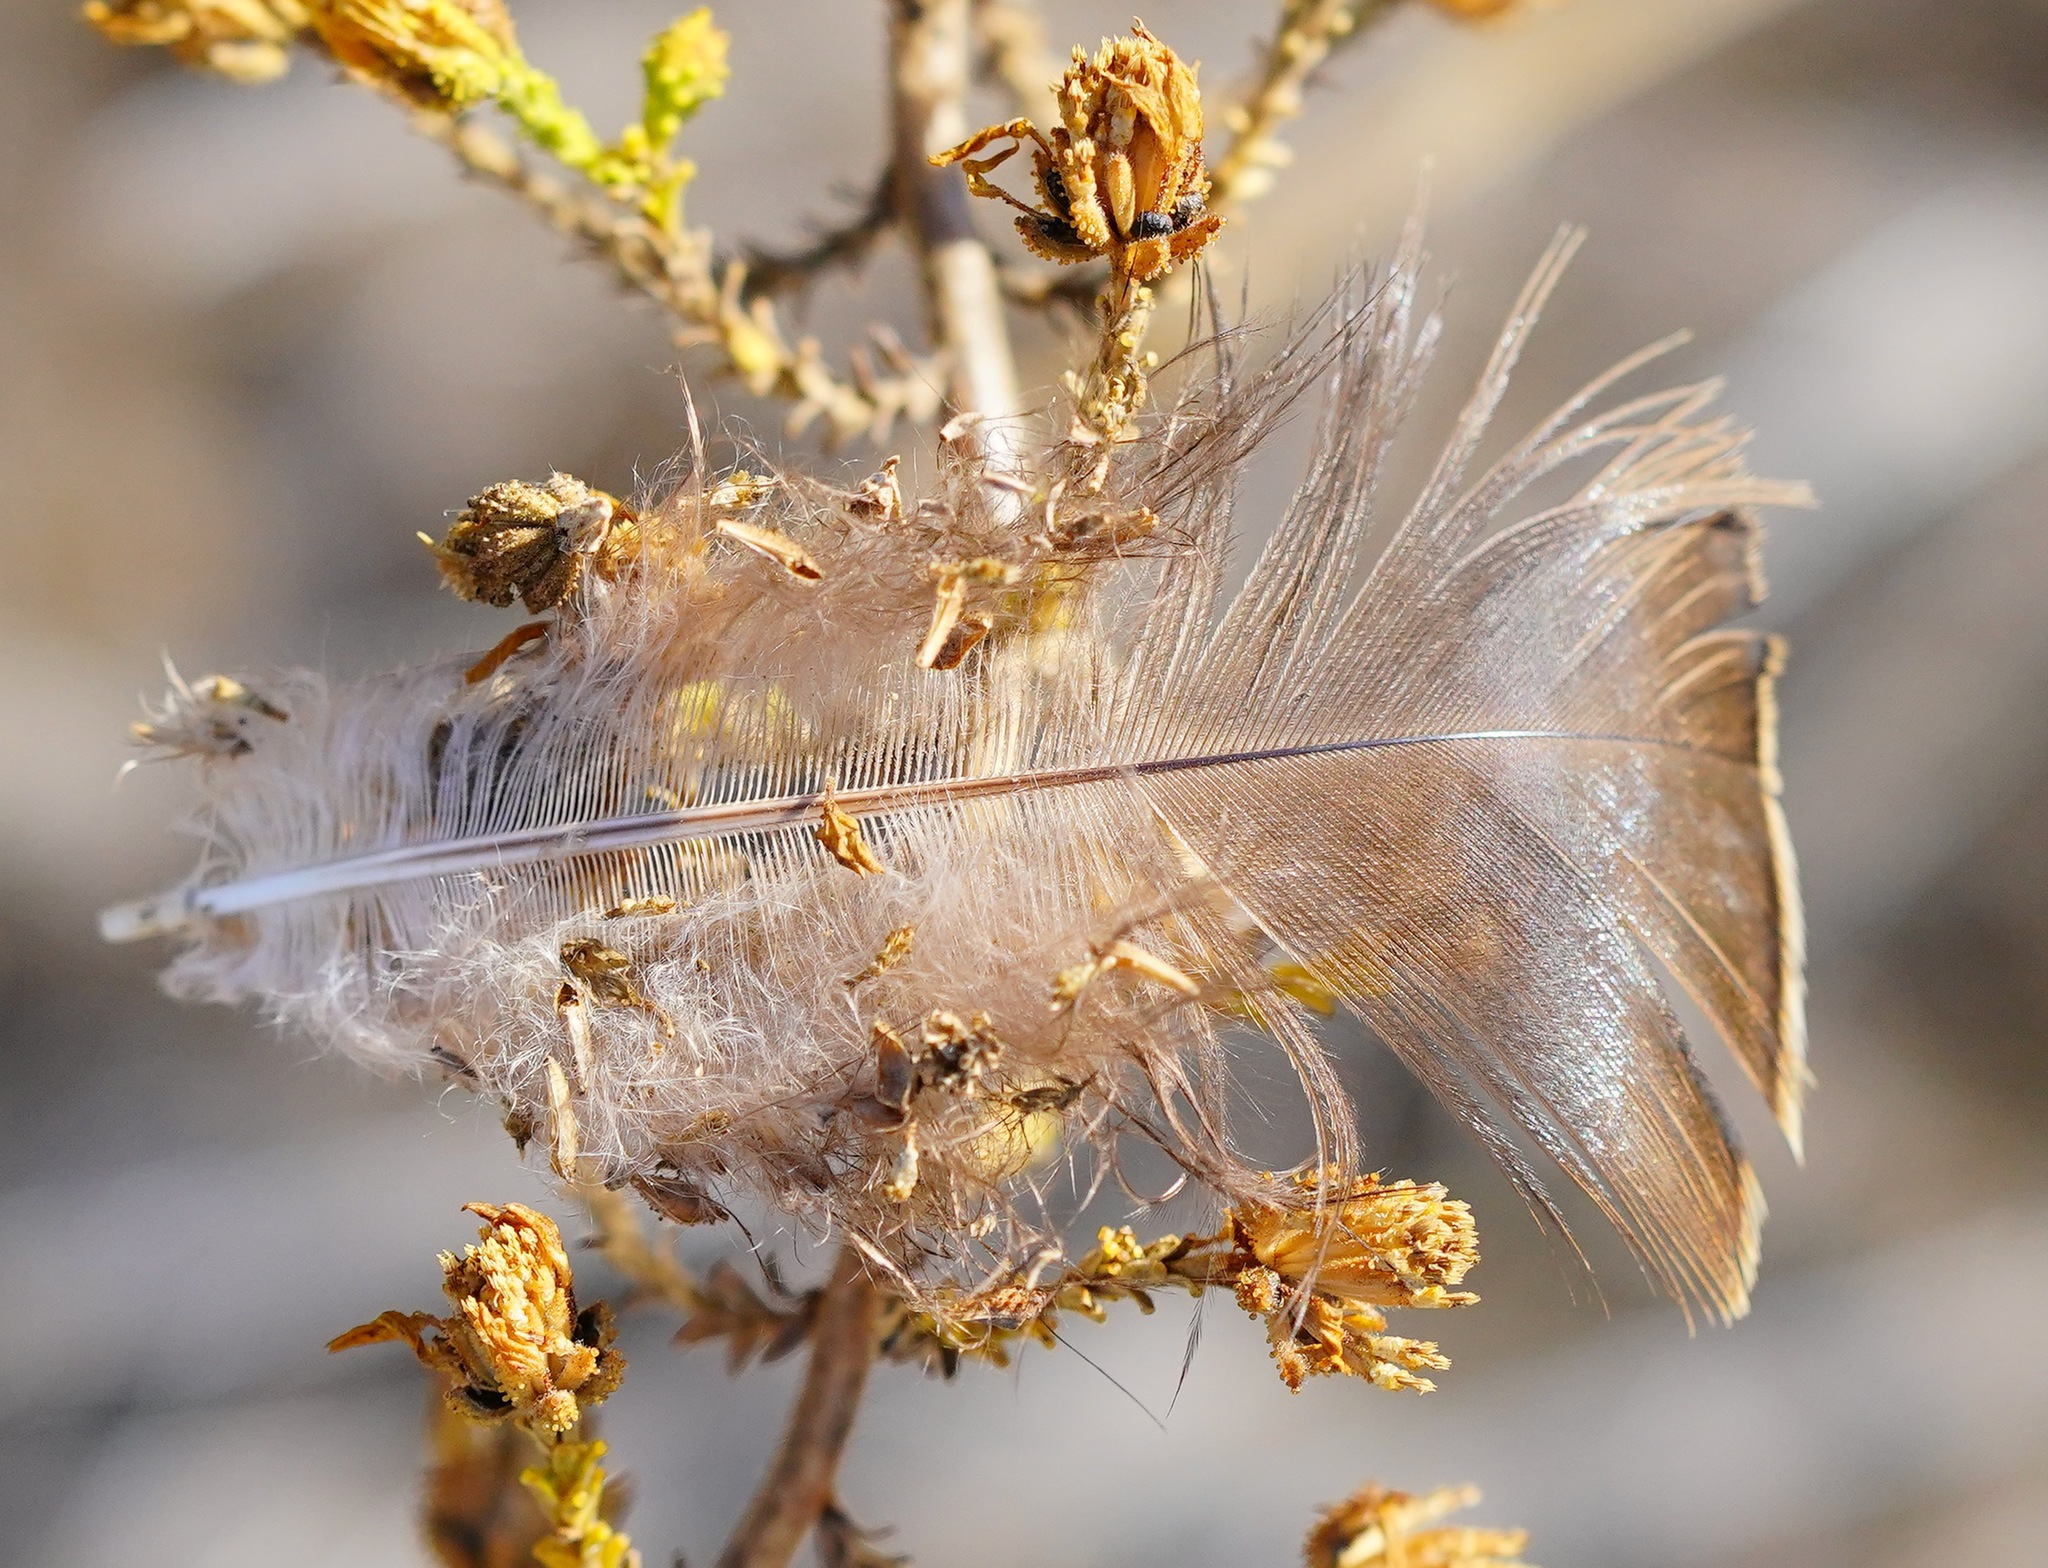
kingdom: Animalia
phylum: Chordata
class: Aves
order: Galliformes
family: Phasianidae
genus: Meleagris
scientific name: Meleagris gallopavo
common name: Wild turkey
